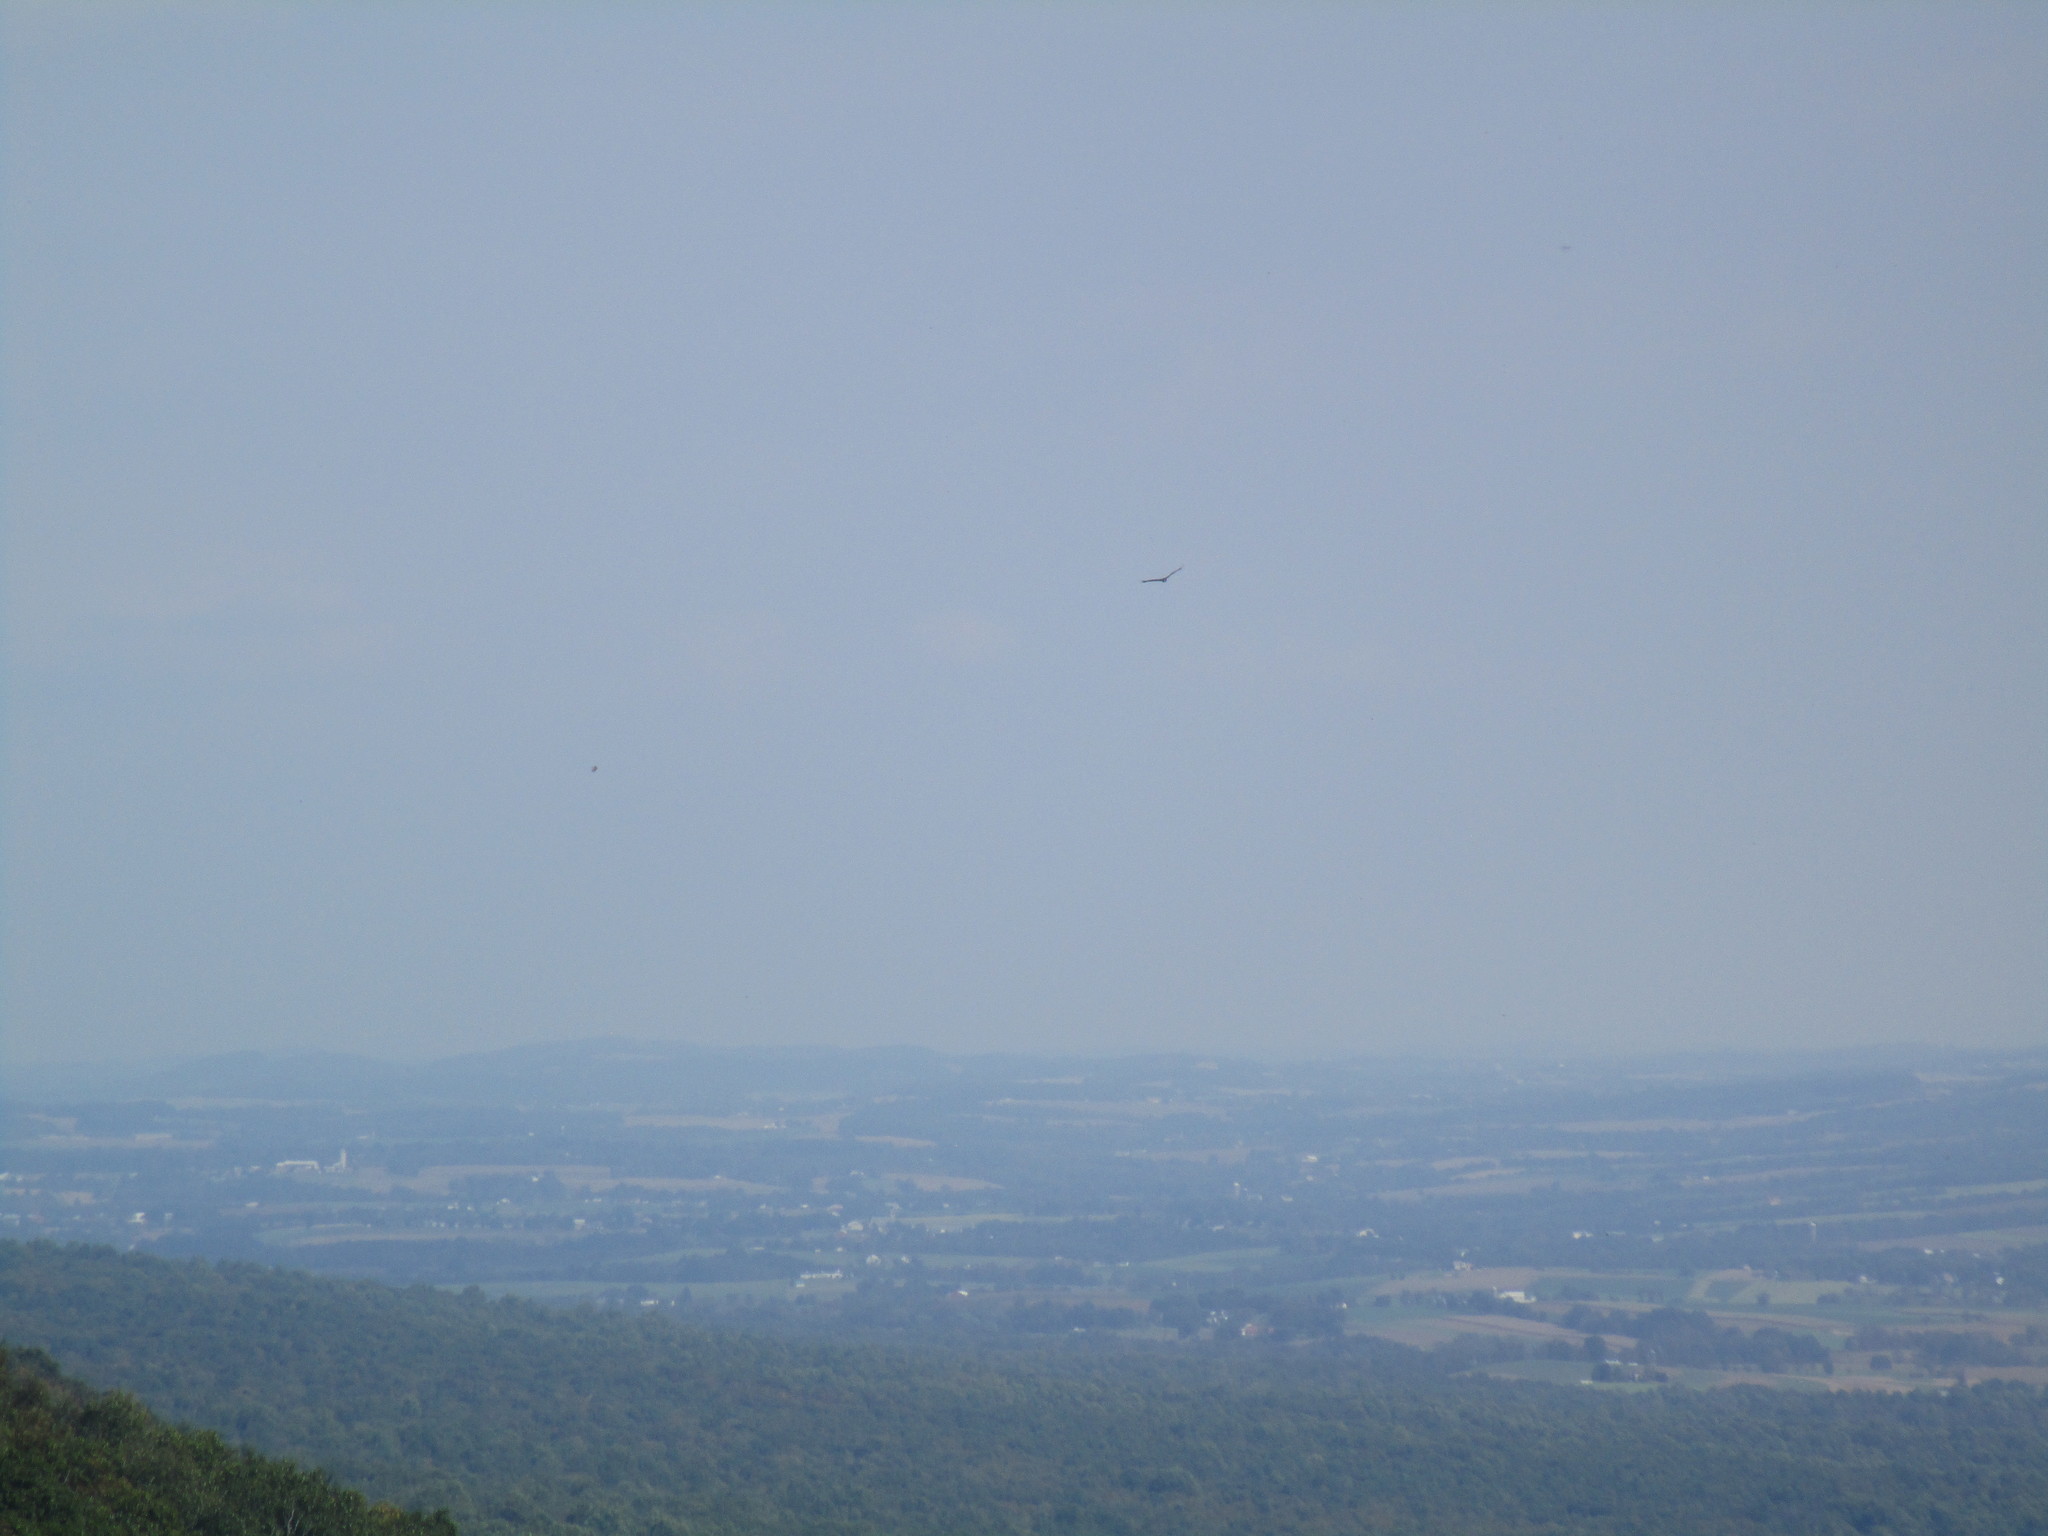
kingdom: Animalia
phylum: Chordata
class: Aves
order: Accipitriformes
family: Cathartidae
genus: Cathartes
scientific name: Cathartes aura
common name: Turkey vulture
